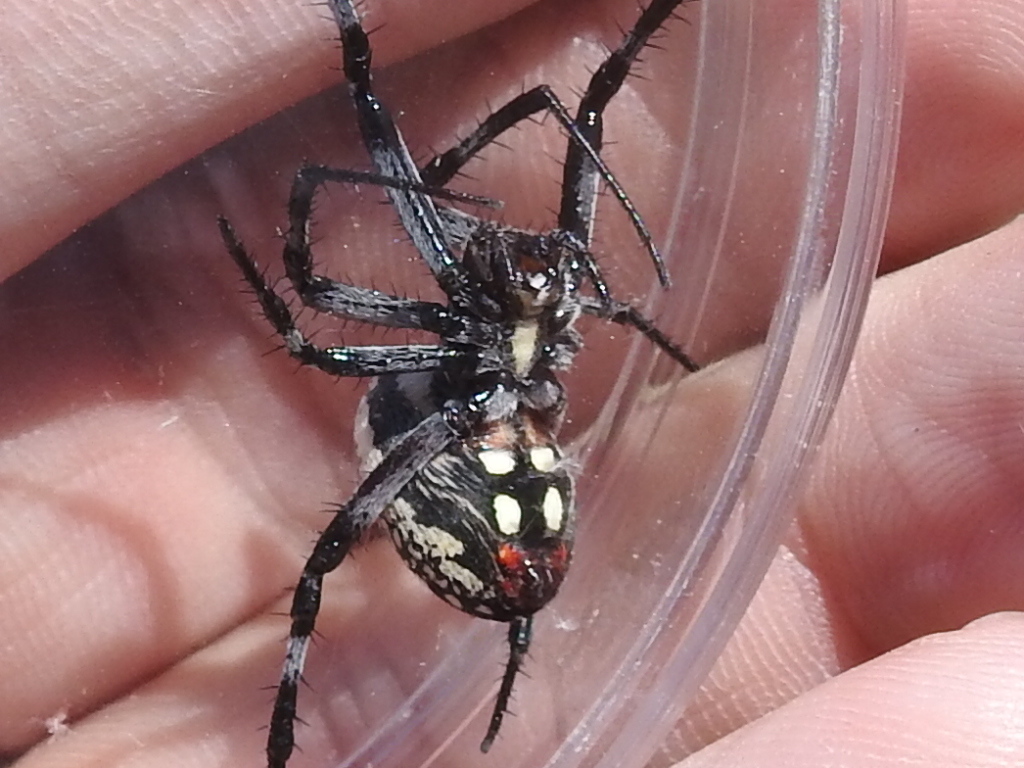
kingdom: Animalia
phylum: Arthropoda
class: Arachnida
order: Araneae
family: Araneidae
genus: Neoscona
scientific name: Neoscona oaxacensis
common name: Orb weavers
